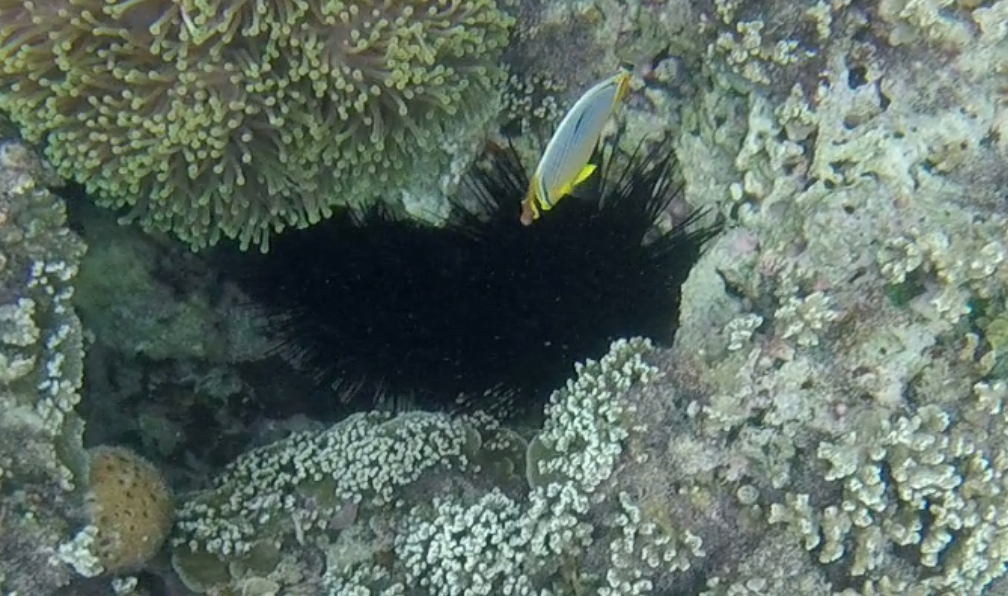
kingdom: Animalia
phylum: Echinodermata
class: Echinoidea
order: Diadematoida
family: Diadematidae
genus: Echinothrix
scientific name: Echinothrix calamaris
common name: Banded sea urchin
